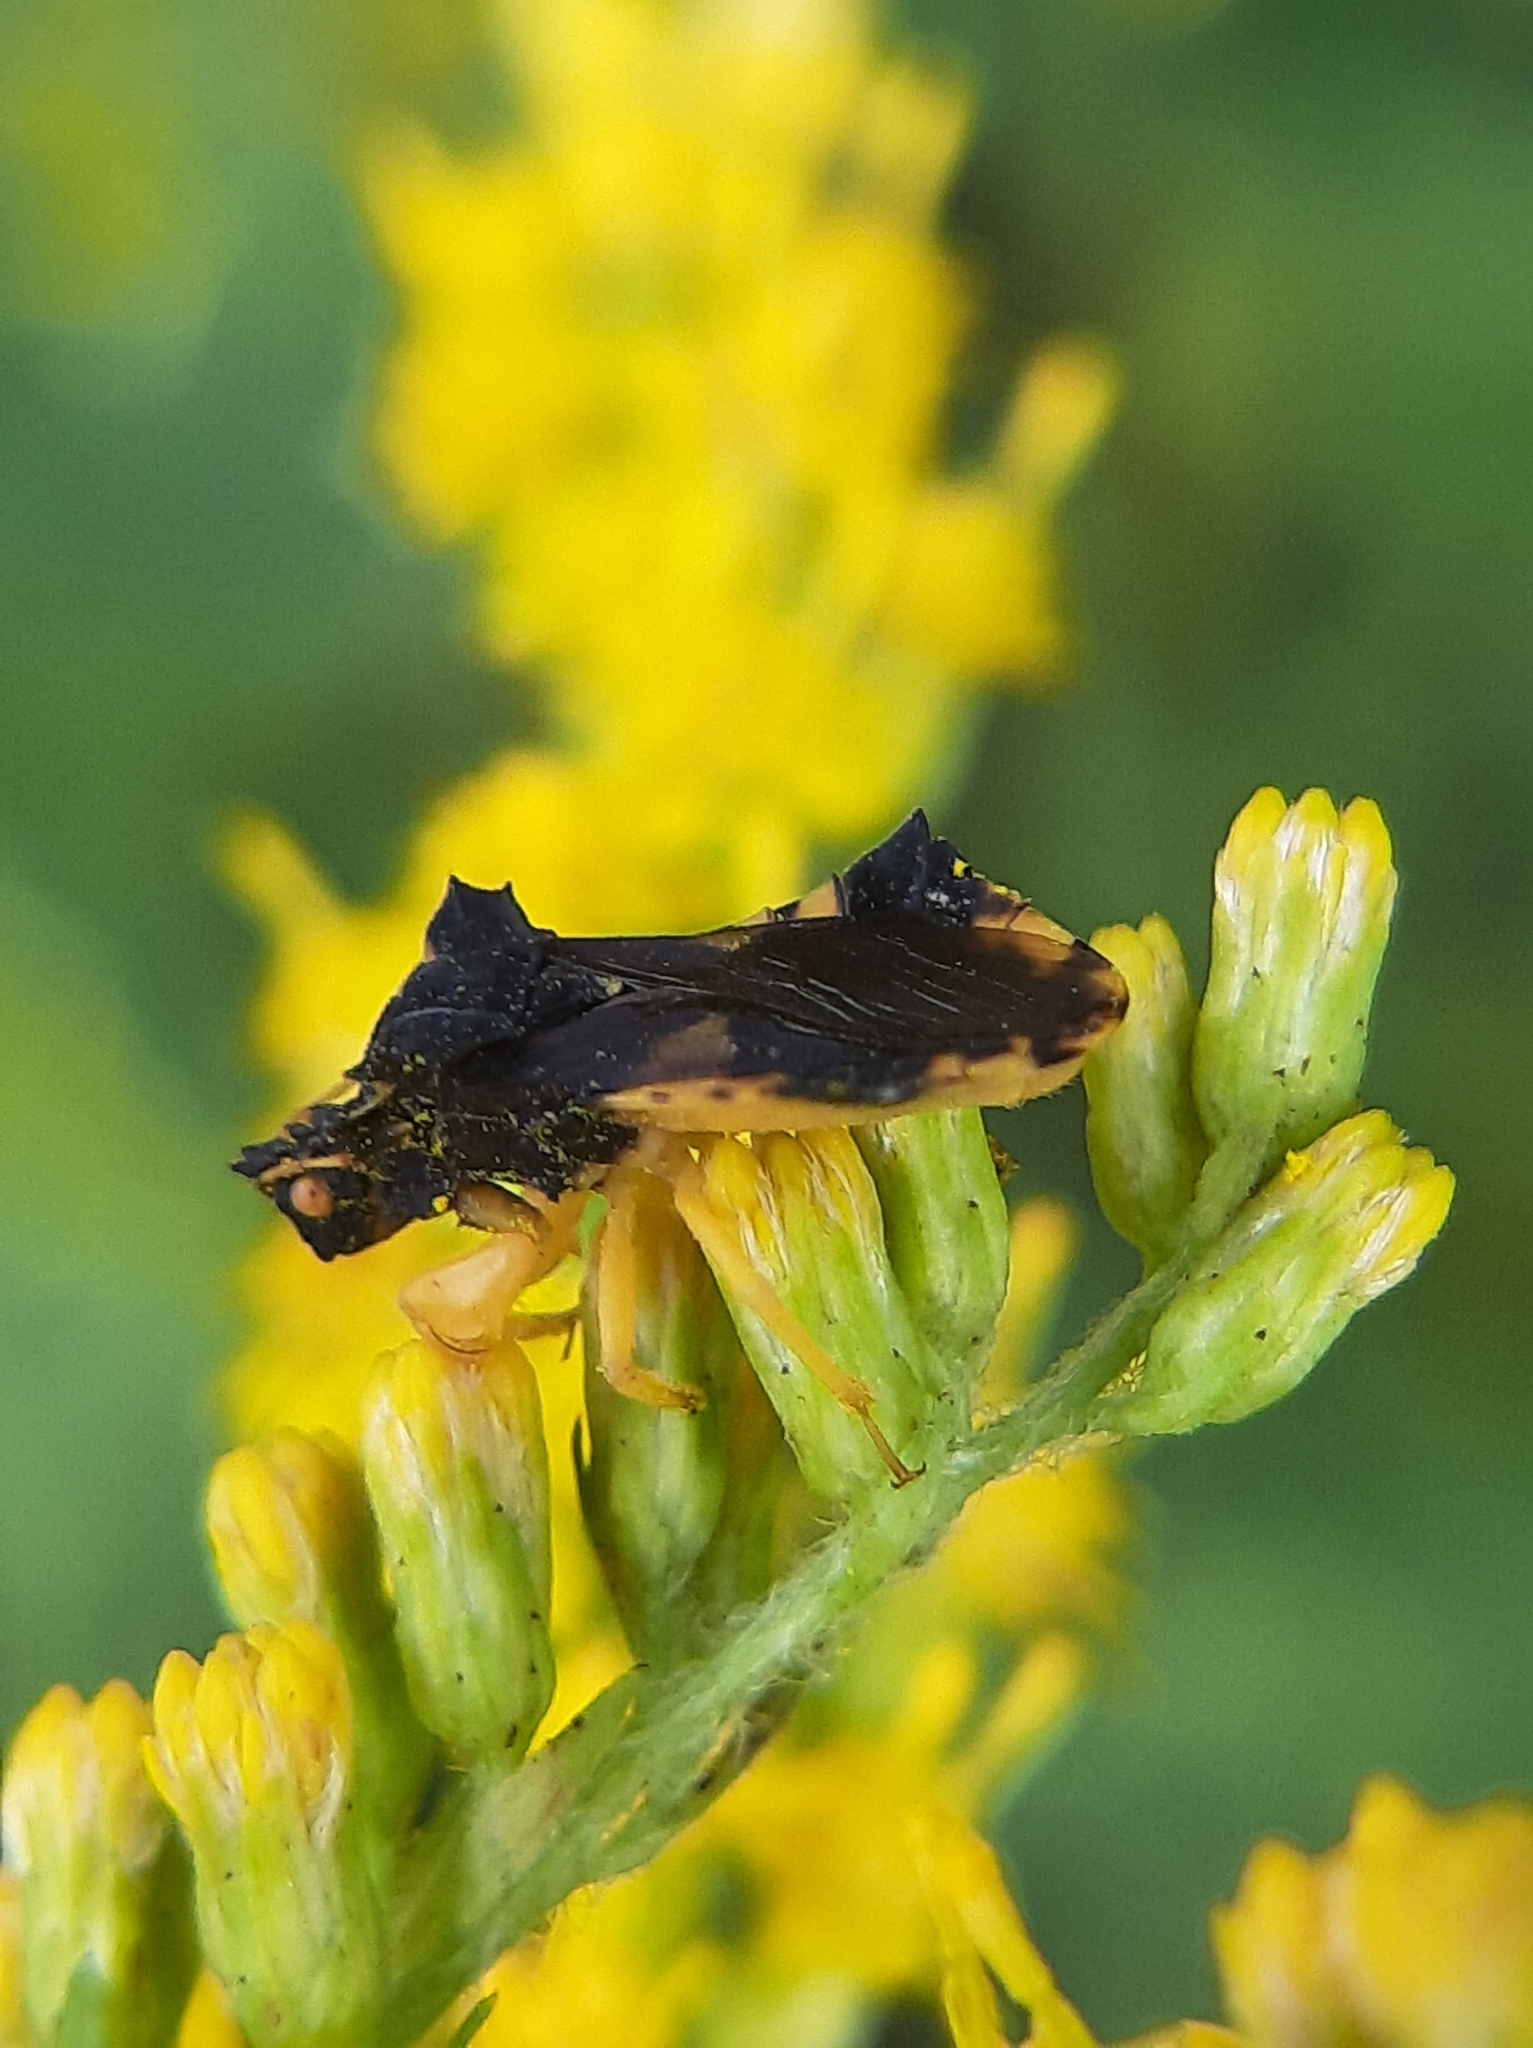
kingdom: Animalia
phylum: Arthropoda
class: Insecta
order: Hemiptera
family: Reduviidae
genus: Phymata
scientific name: Phymata americana
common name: Jagged ambush bug
